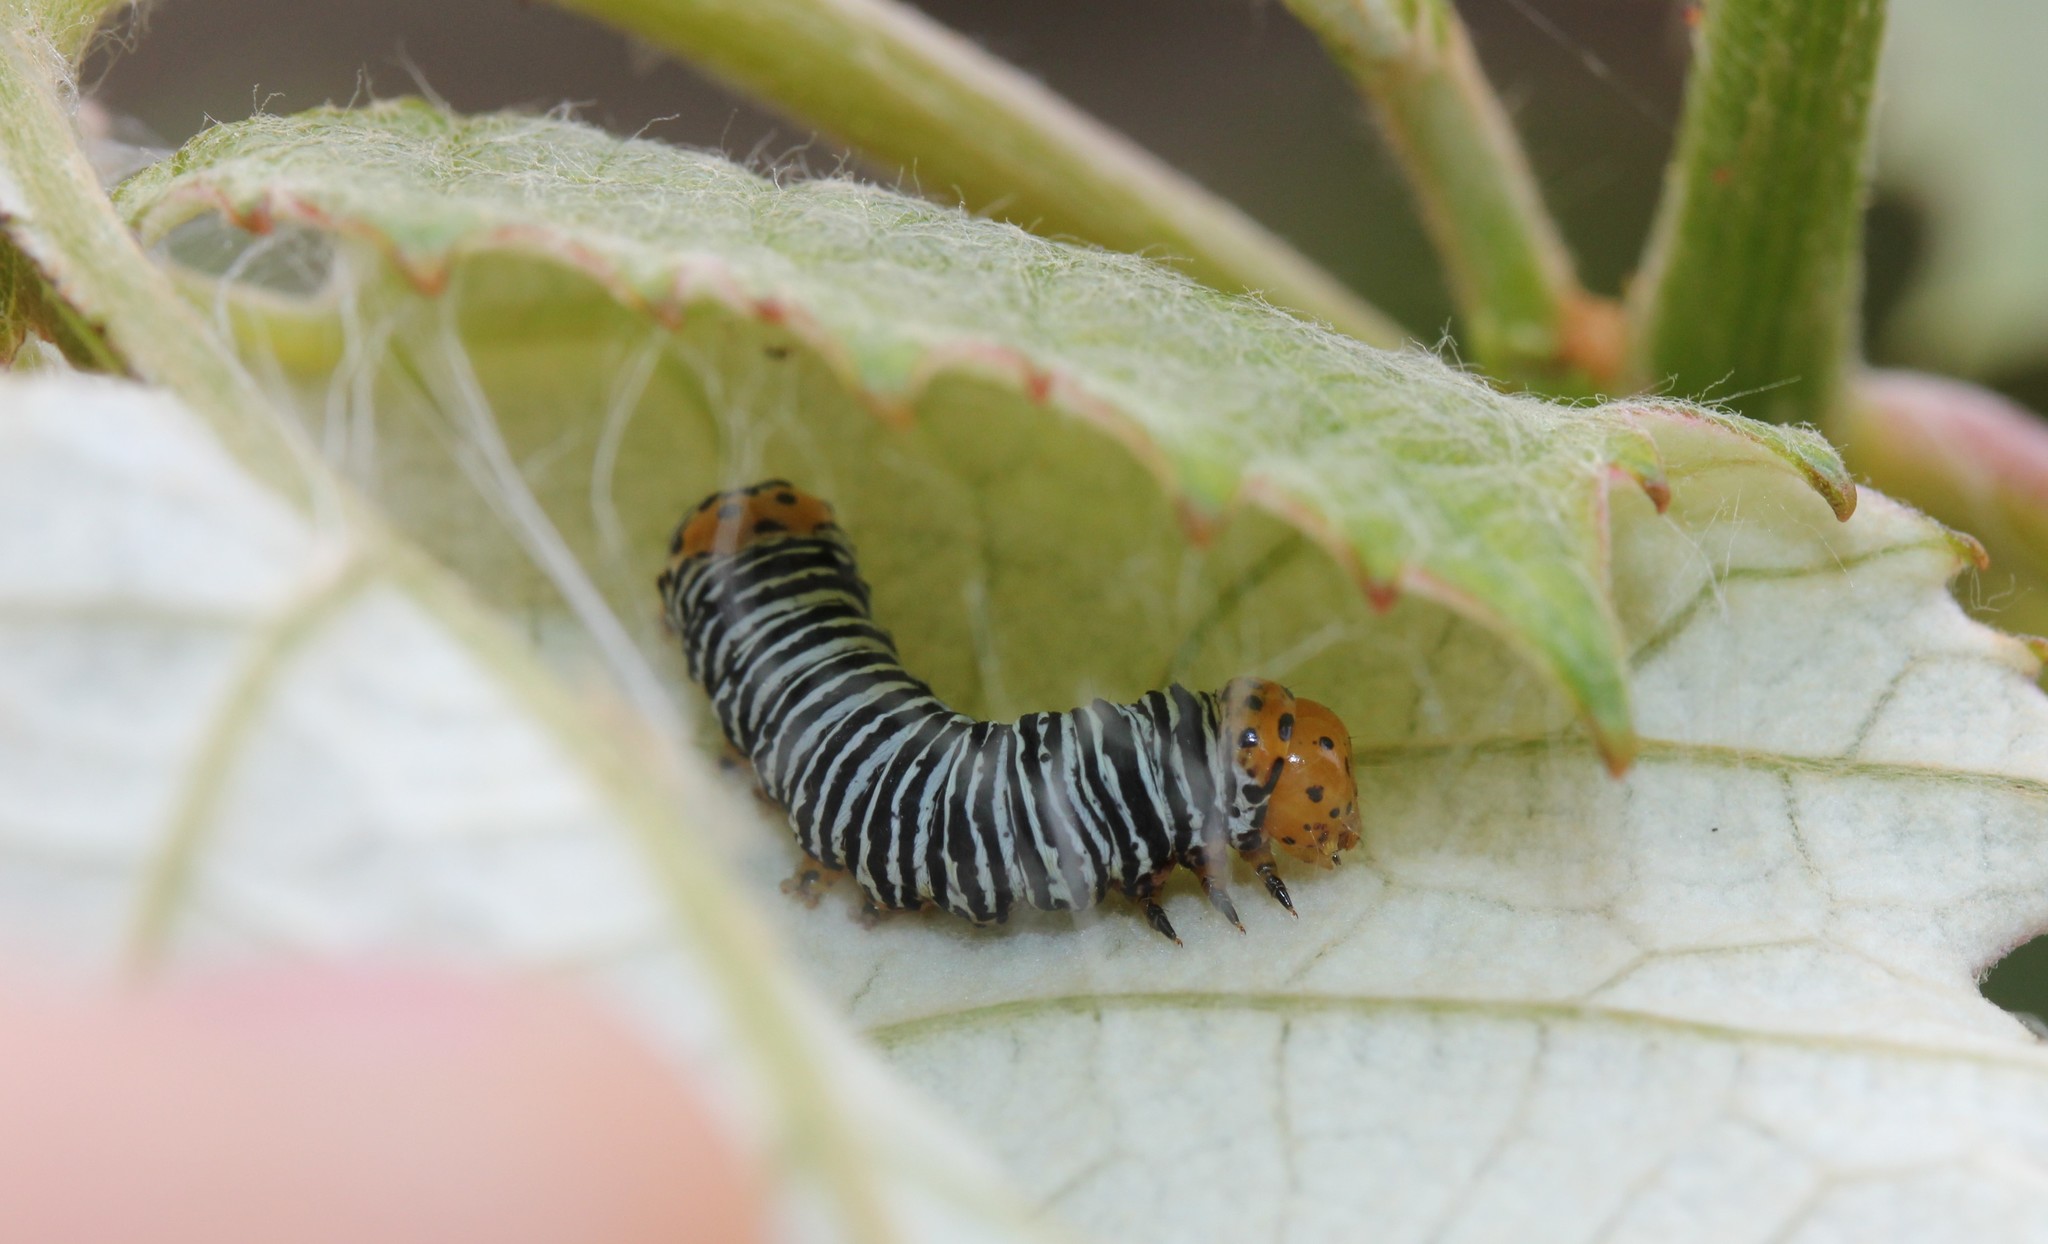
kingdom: Animalia
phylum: Arthropoda
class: Insecta
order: Lepidoptera
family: Noctuidae
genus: Psychomorpha
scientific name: Psychomorpha epimenis
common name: Grapevine epimenis moth
